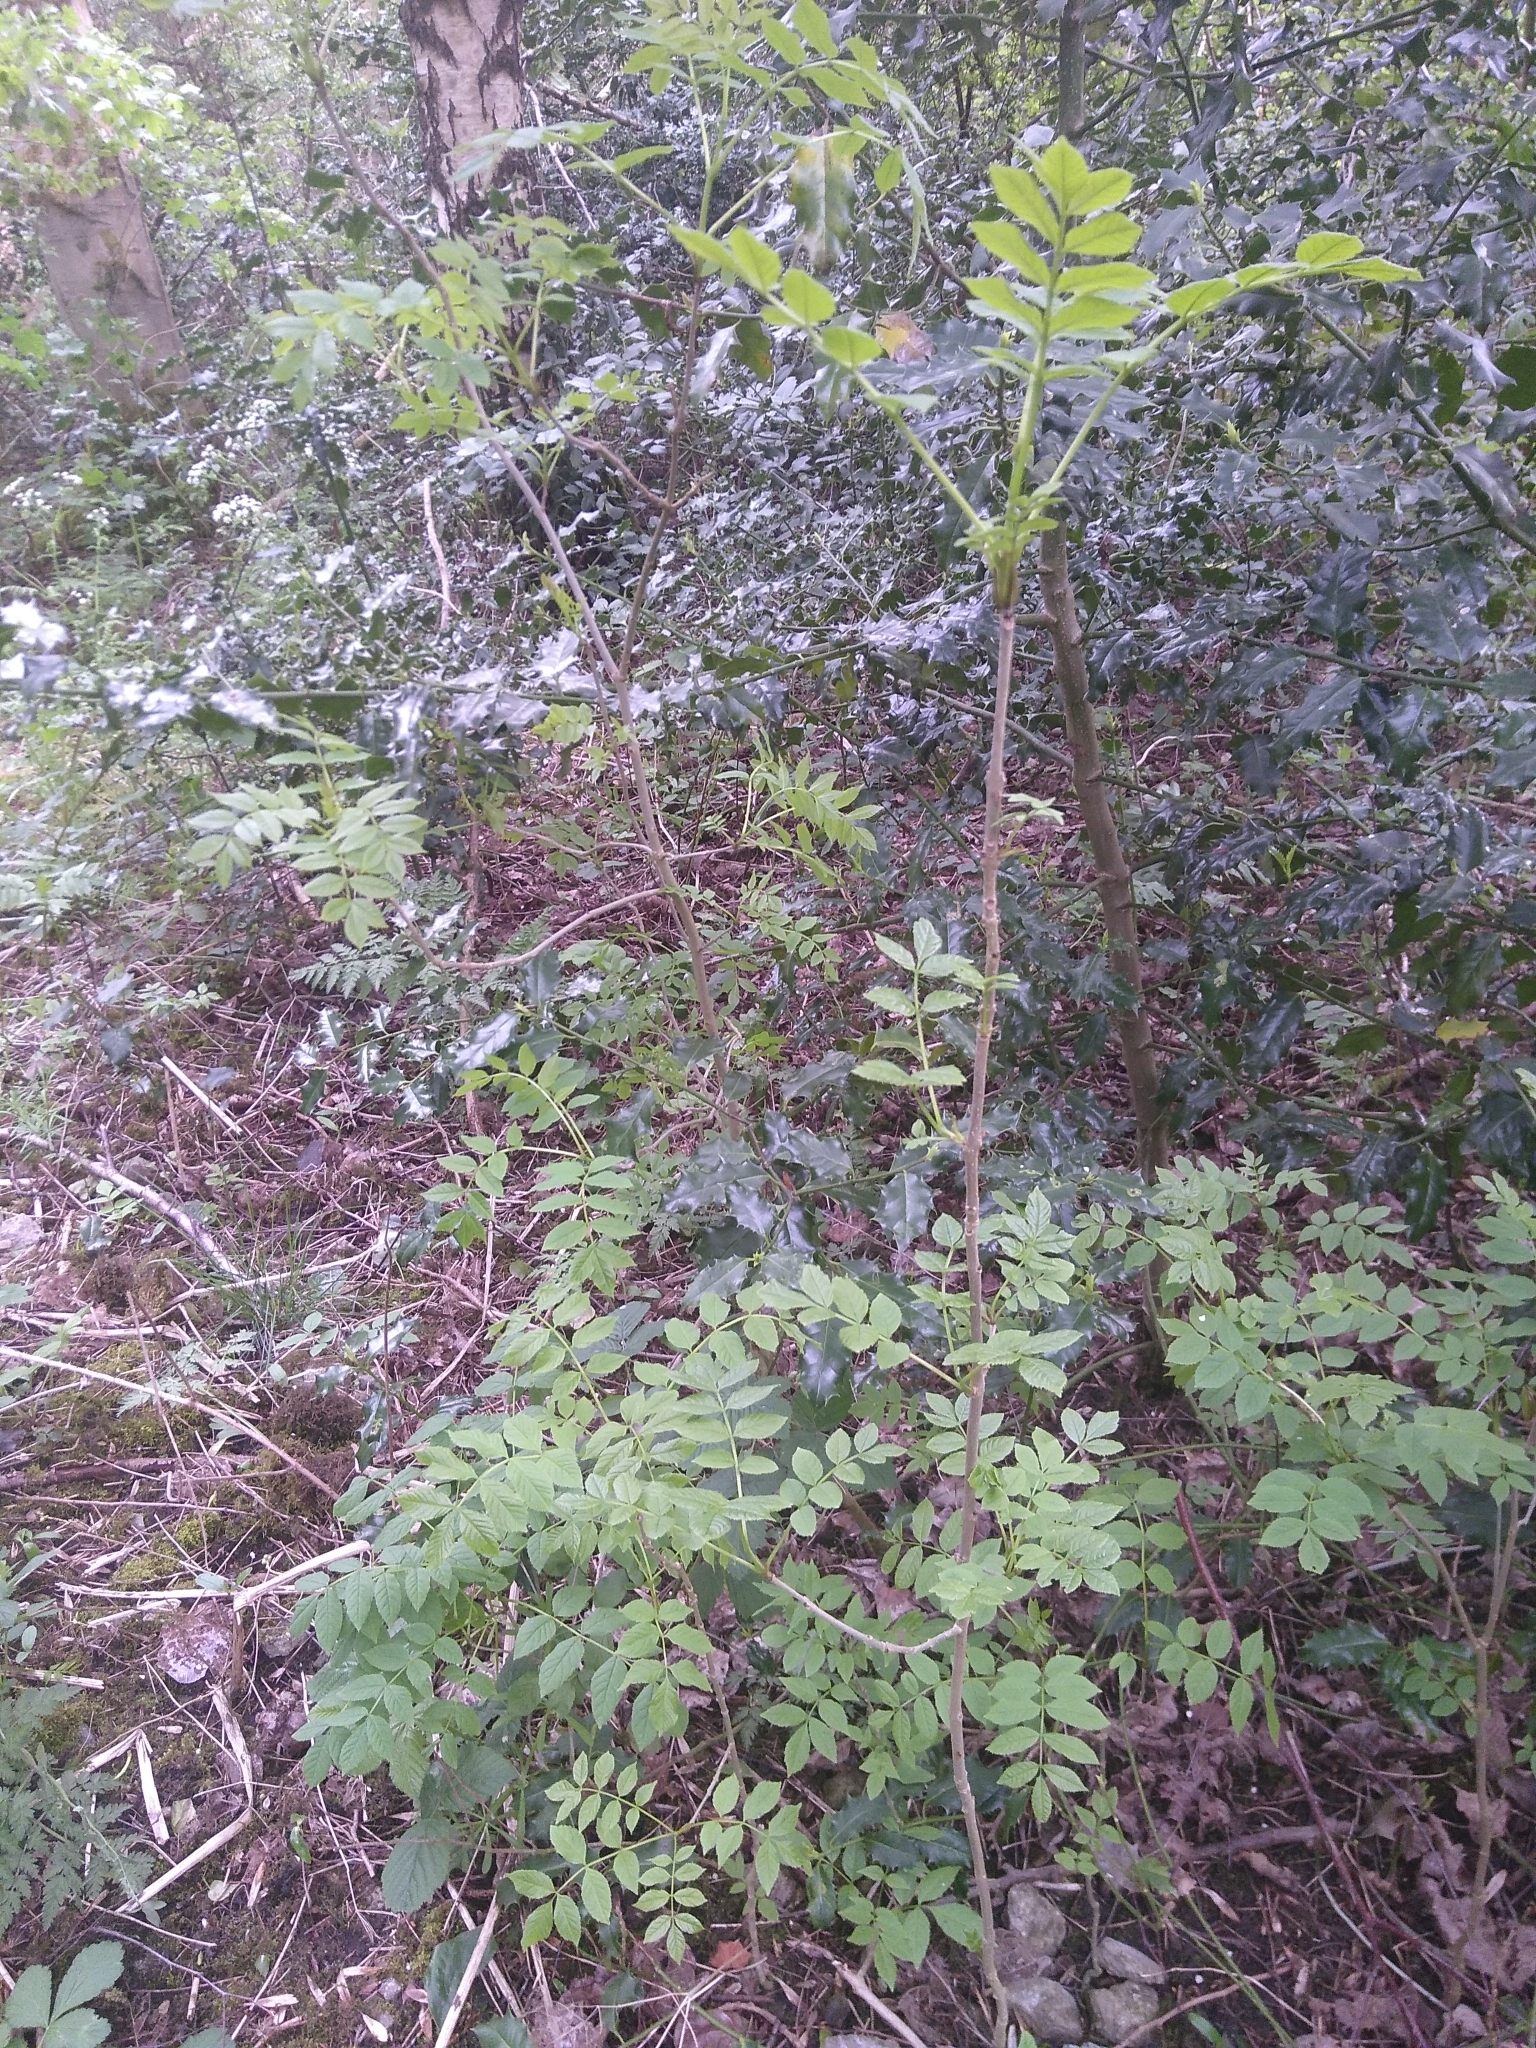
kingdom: Plantae
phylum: Tracheophyta
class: Magnoliopsida
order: Lamiales
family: Oleaceae
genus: Fraxinus
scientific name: Fraxinus excelsior
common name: European ash
